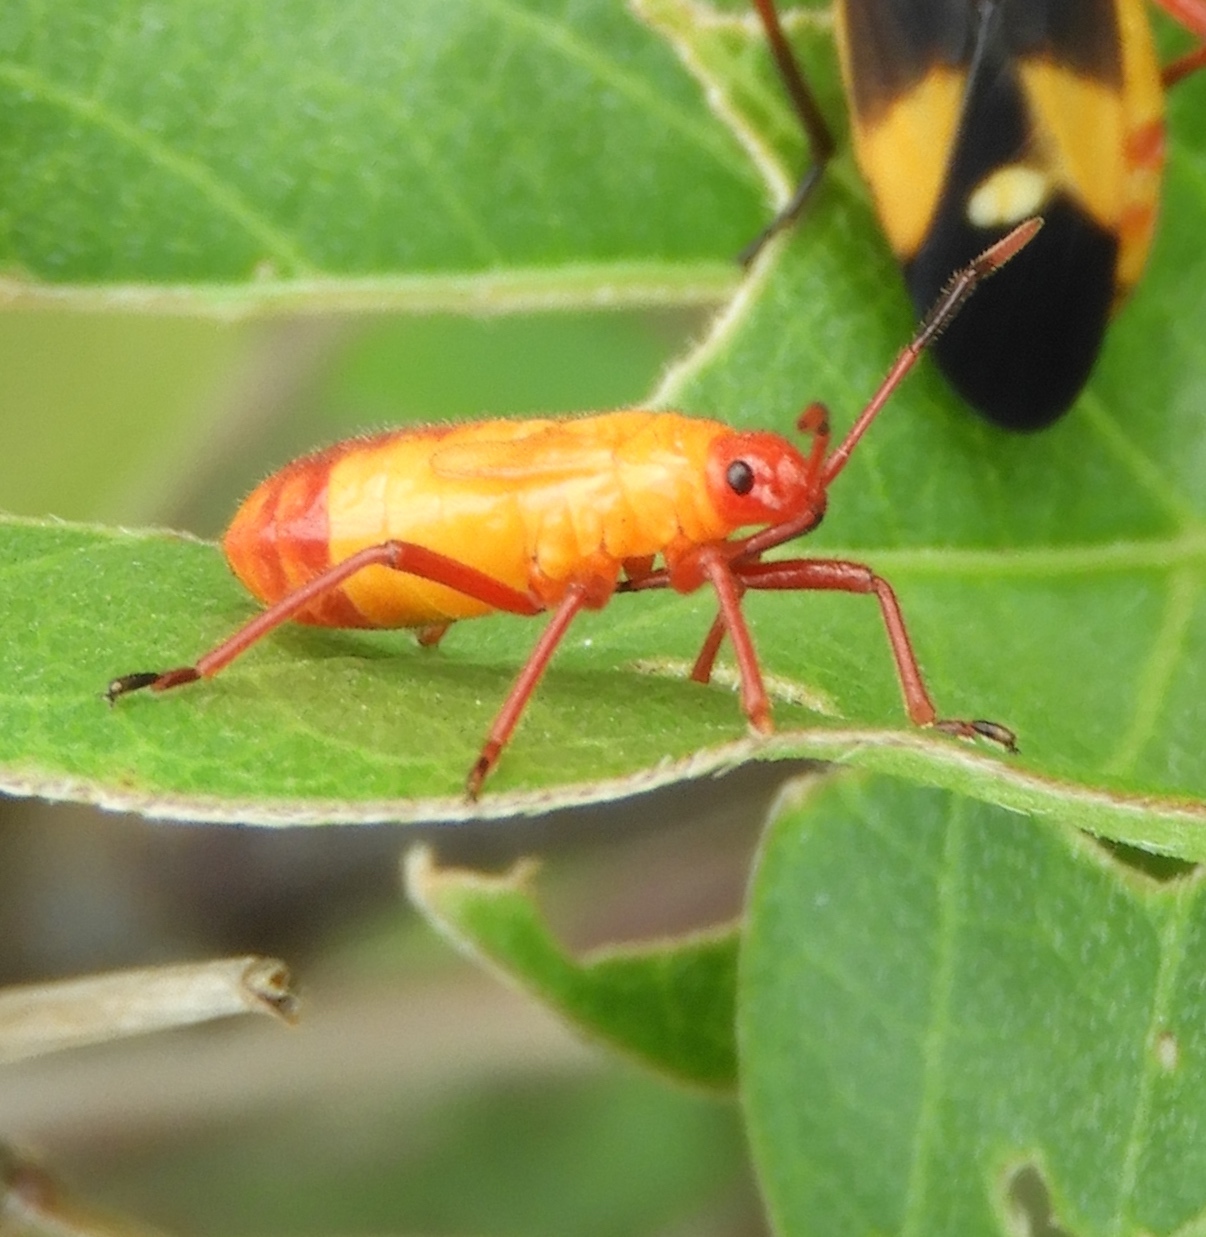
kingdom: Animalia
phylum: Arthropoda
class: Insecta
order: Hemiptera
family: Lygaeidae
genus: Oncopeltus
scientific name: Oncopeltus guttaloides
